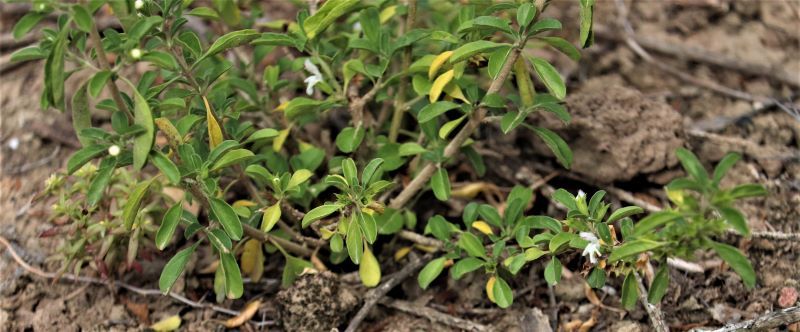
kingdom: Plantae
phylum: Tracheophyta
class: Magnoliopsida
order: Lamiales
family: Lamiaceae
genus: Leucas
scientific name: Leucas capensis
